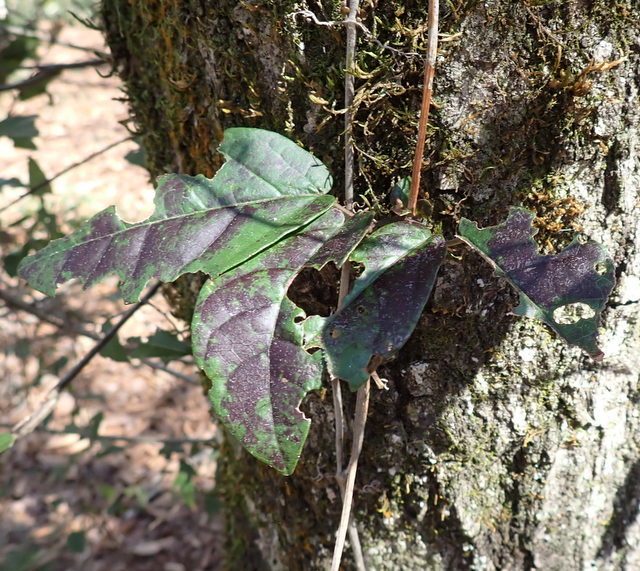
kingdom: Plantae
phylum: Tracheophyta
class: Magnoliopsida
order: Lamiales
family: Bignoniaceae
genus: Bignonia
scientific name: Bignonia capreolata
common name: Crossvine
